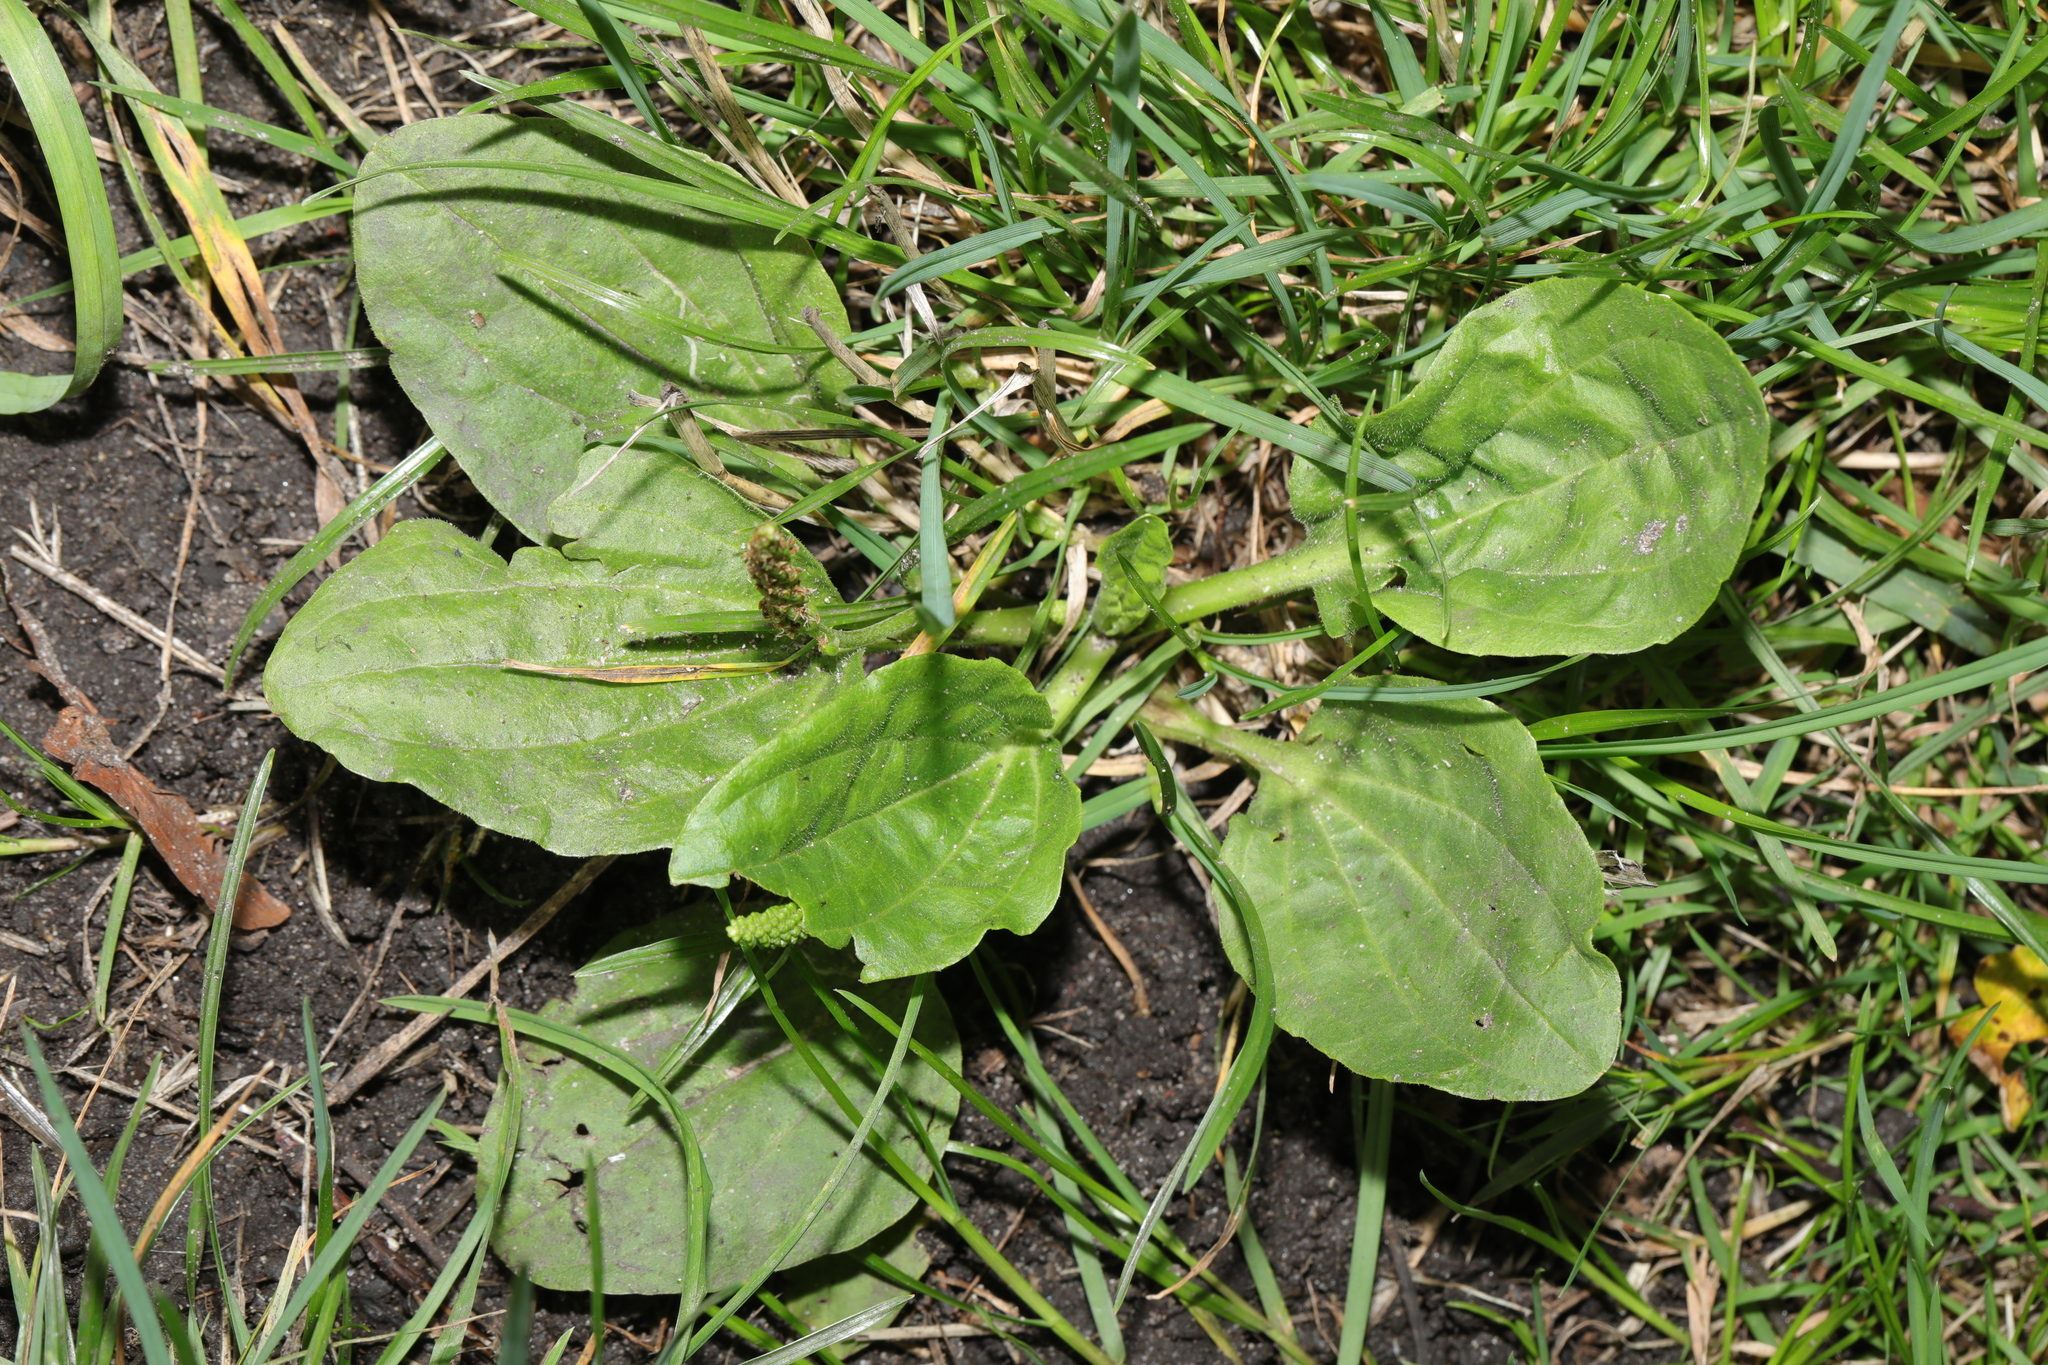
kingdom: Plantae
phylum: Tracheophyta
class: Magnoliopsida
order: Lamiales
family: Plantaginaceae
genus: Plantago
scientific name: Plantago major
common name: Common plantain
